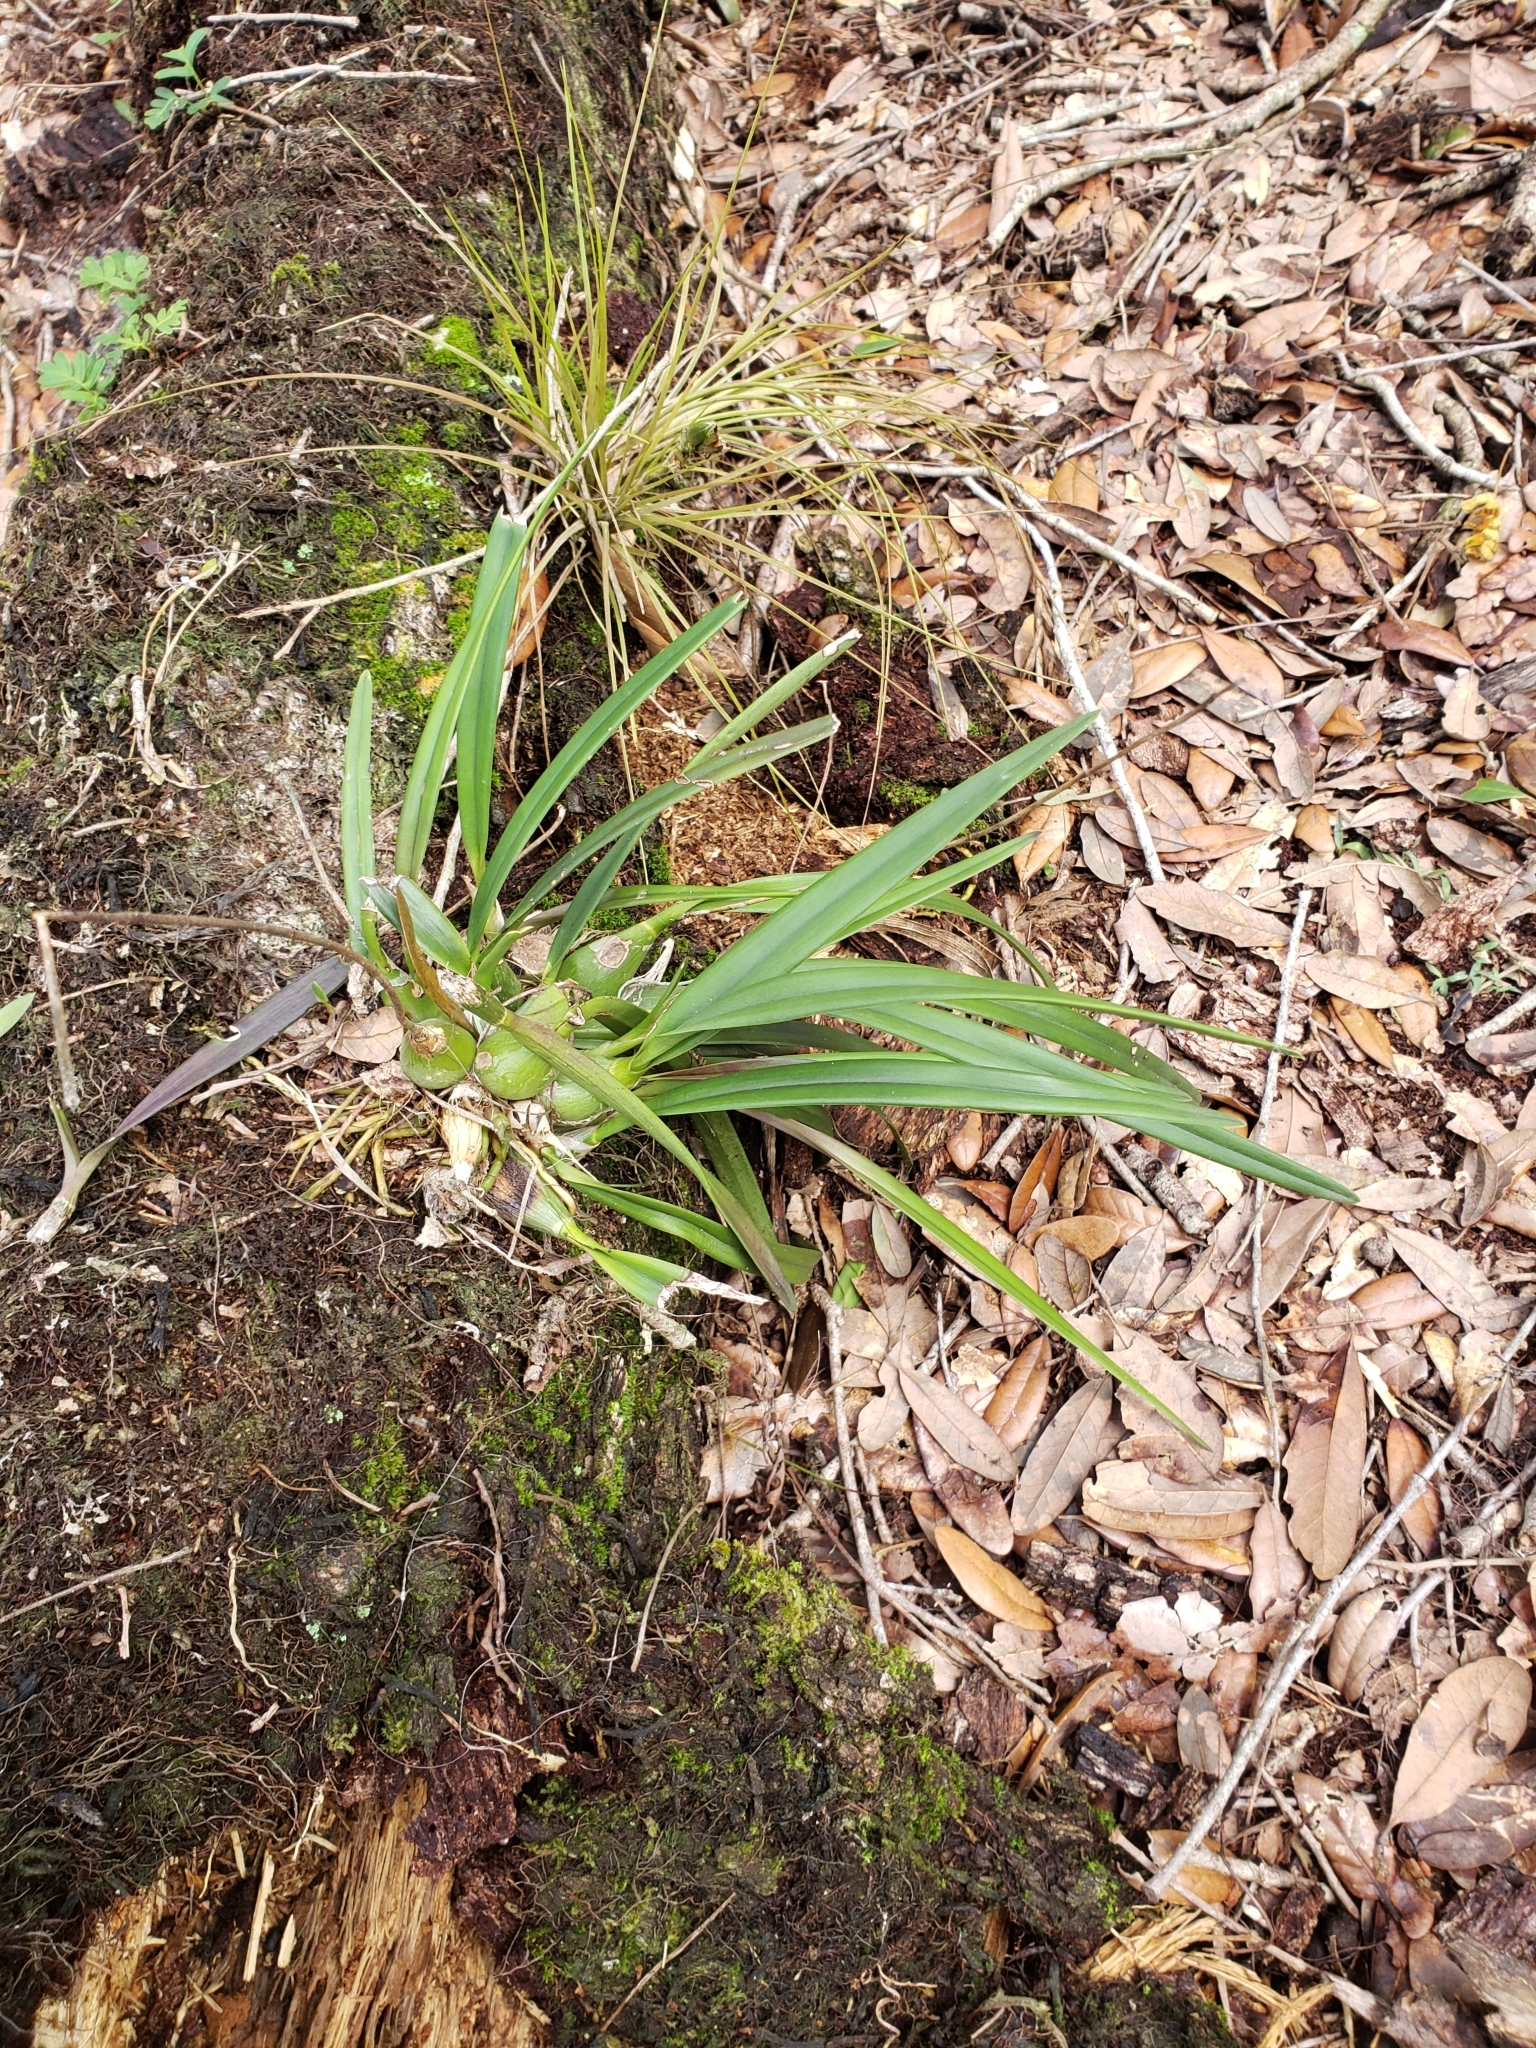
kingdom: Plantae
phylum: Tracheophyta
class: Liliopsida
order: Asparagales
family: Orchidaceae
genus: Encyclia
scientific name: Encyclia tampensis
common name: Florida butterfly orchid
